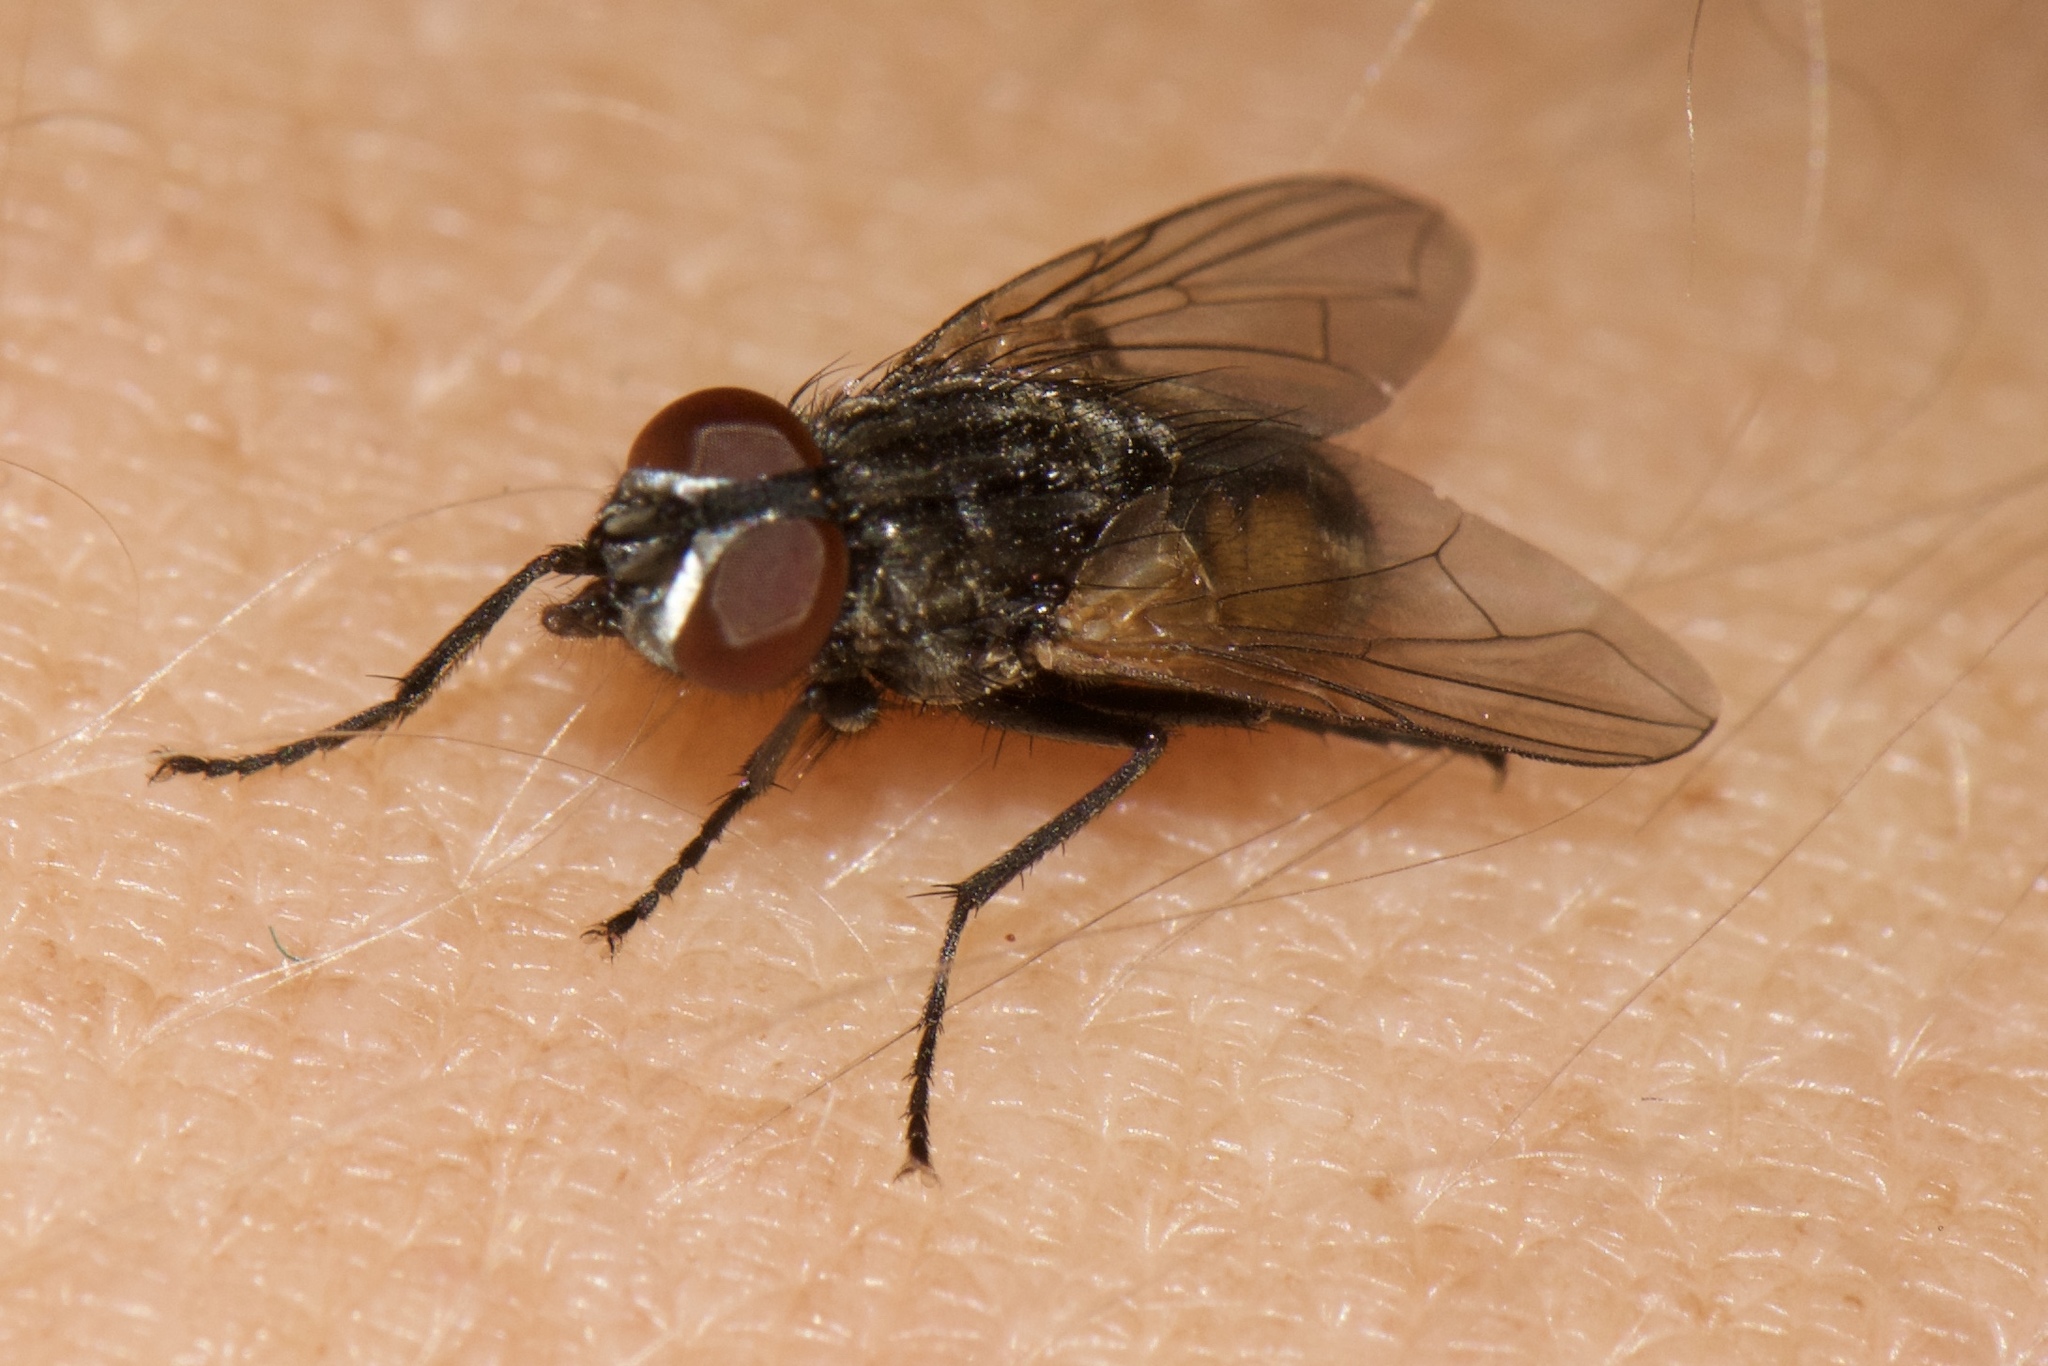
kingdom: Animalia
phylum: Arthropoda
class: Insecta
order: Diptera
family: Muscidae
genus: Musca
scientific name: Musca domestica
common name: House fly
